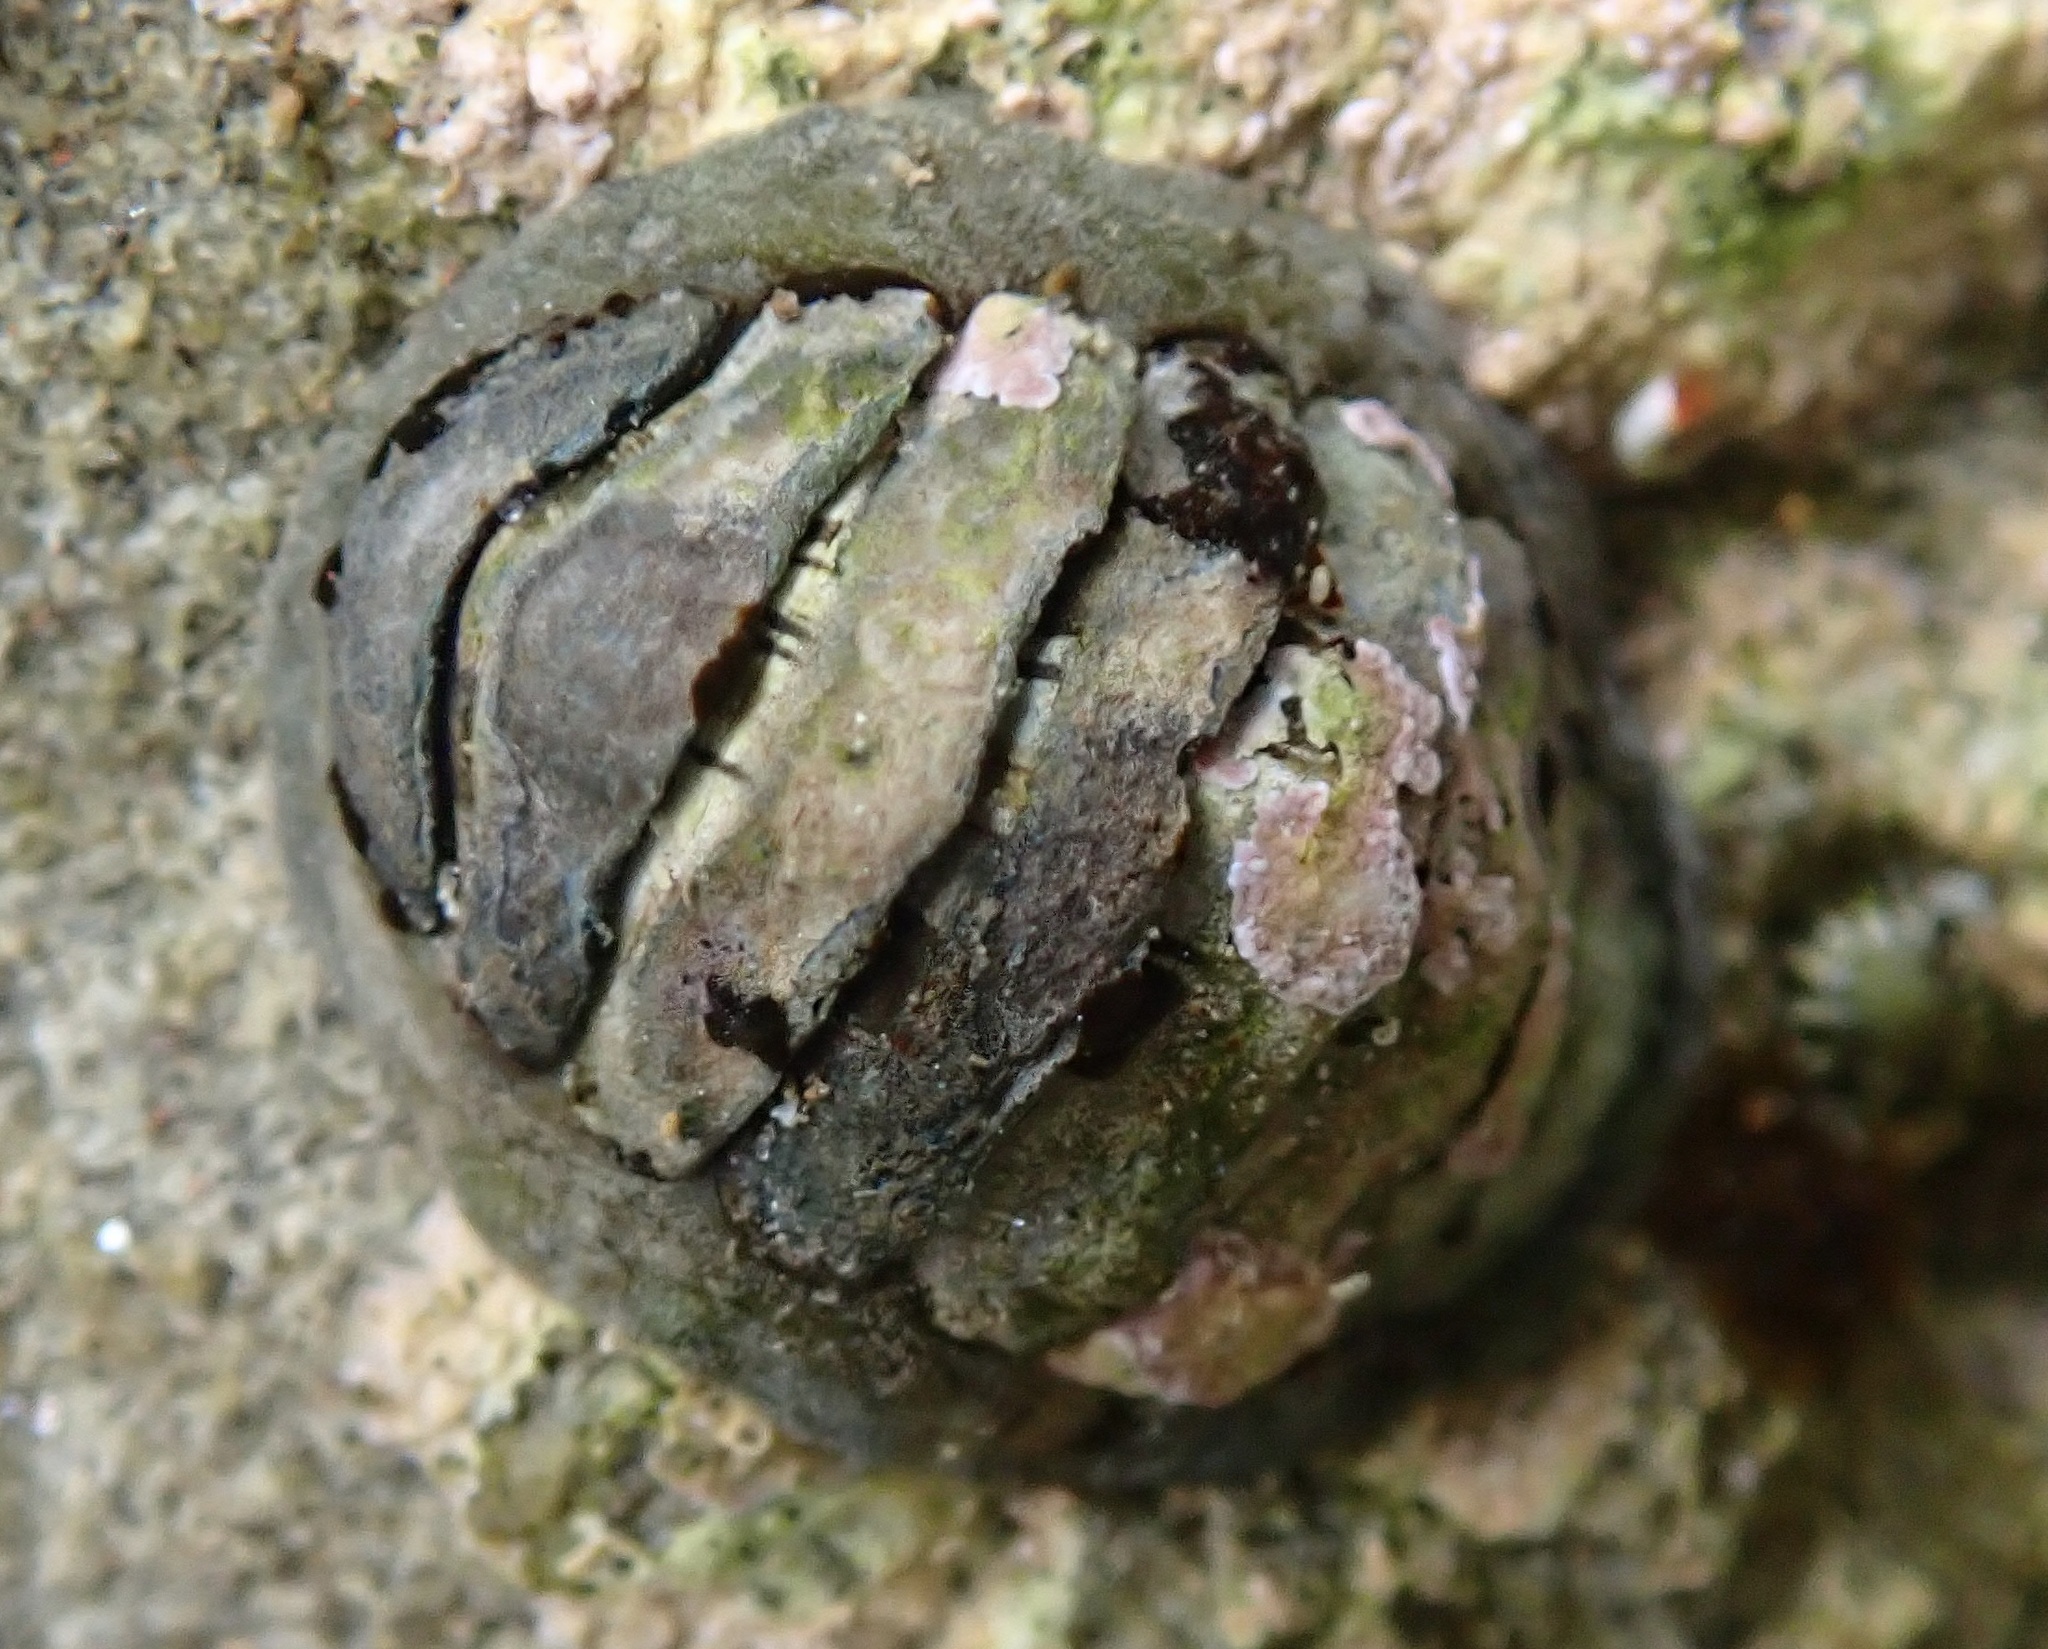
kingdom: Animalia
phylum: Mollusca
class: Polyplacophora
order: Chitonida
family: Tonicellidae
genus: Cyanoplax
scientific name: Cyanoplax hartwegii
